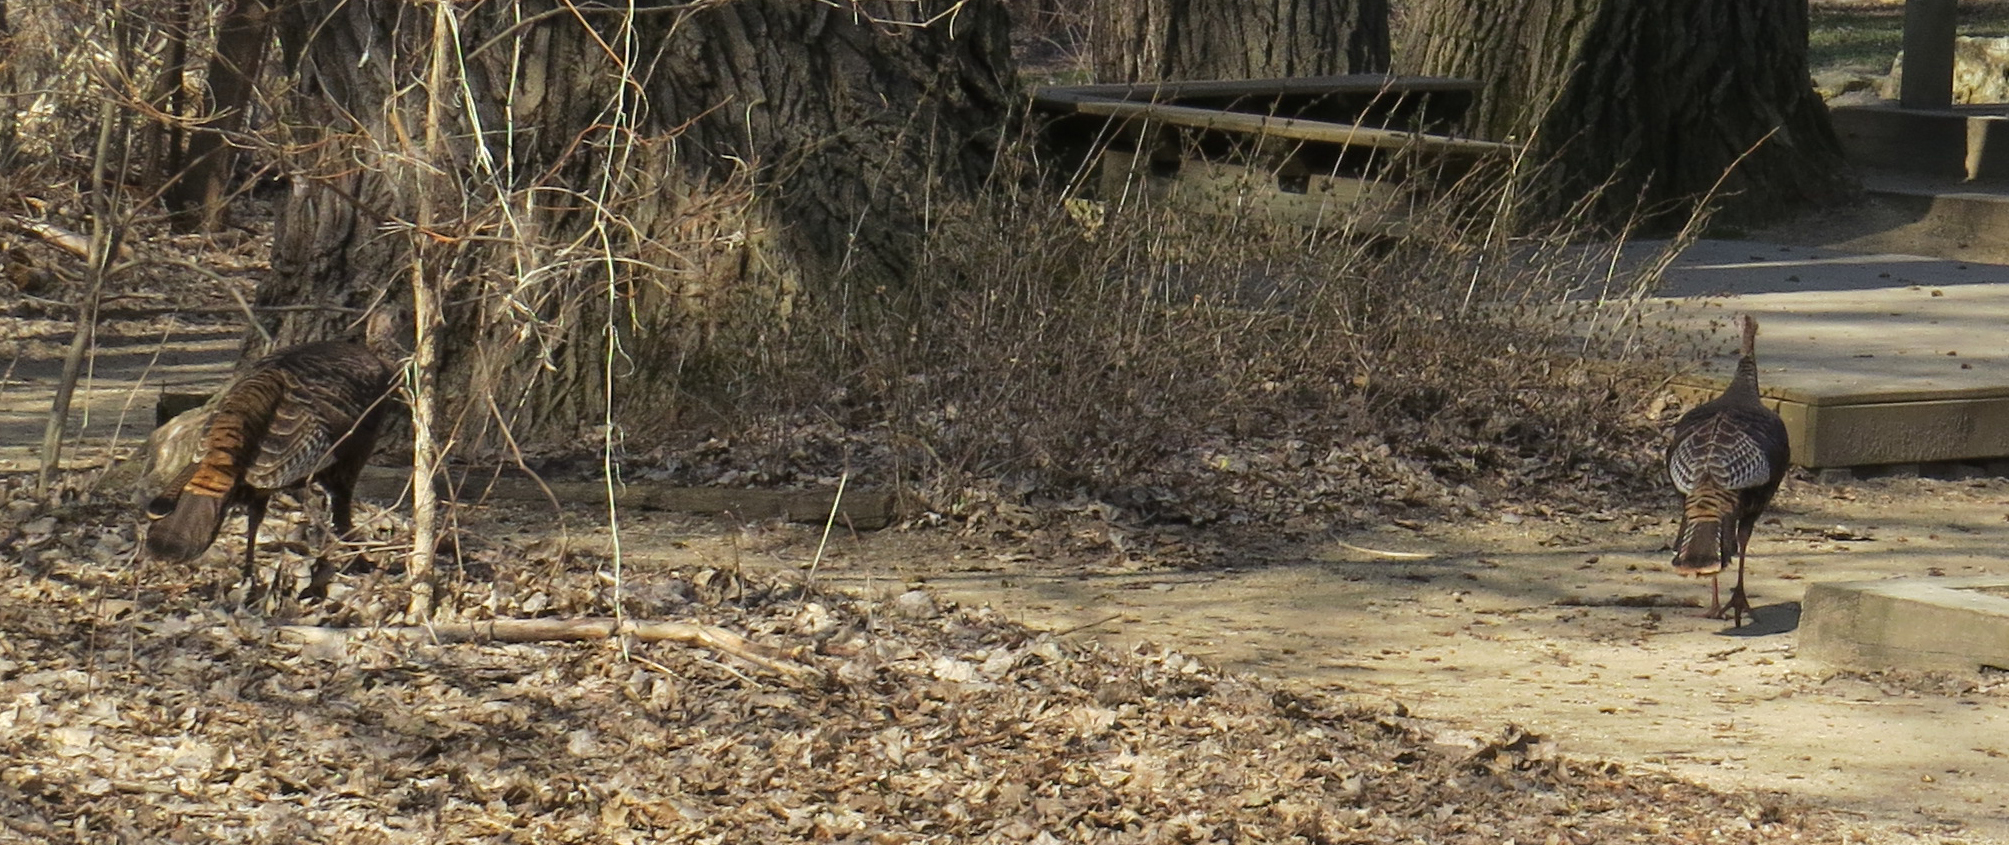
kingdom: Animalia
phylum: Chordata
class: Aves
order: Galliformes
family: Phasianidae
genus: Meleagris
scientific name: Meleagris gallopavo
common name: Wild turkey
